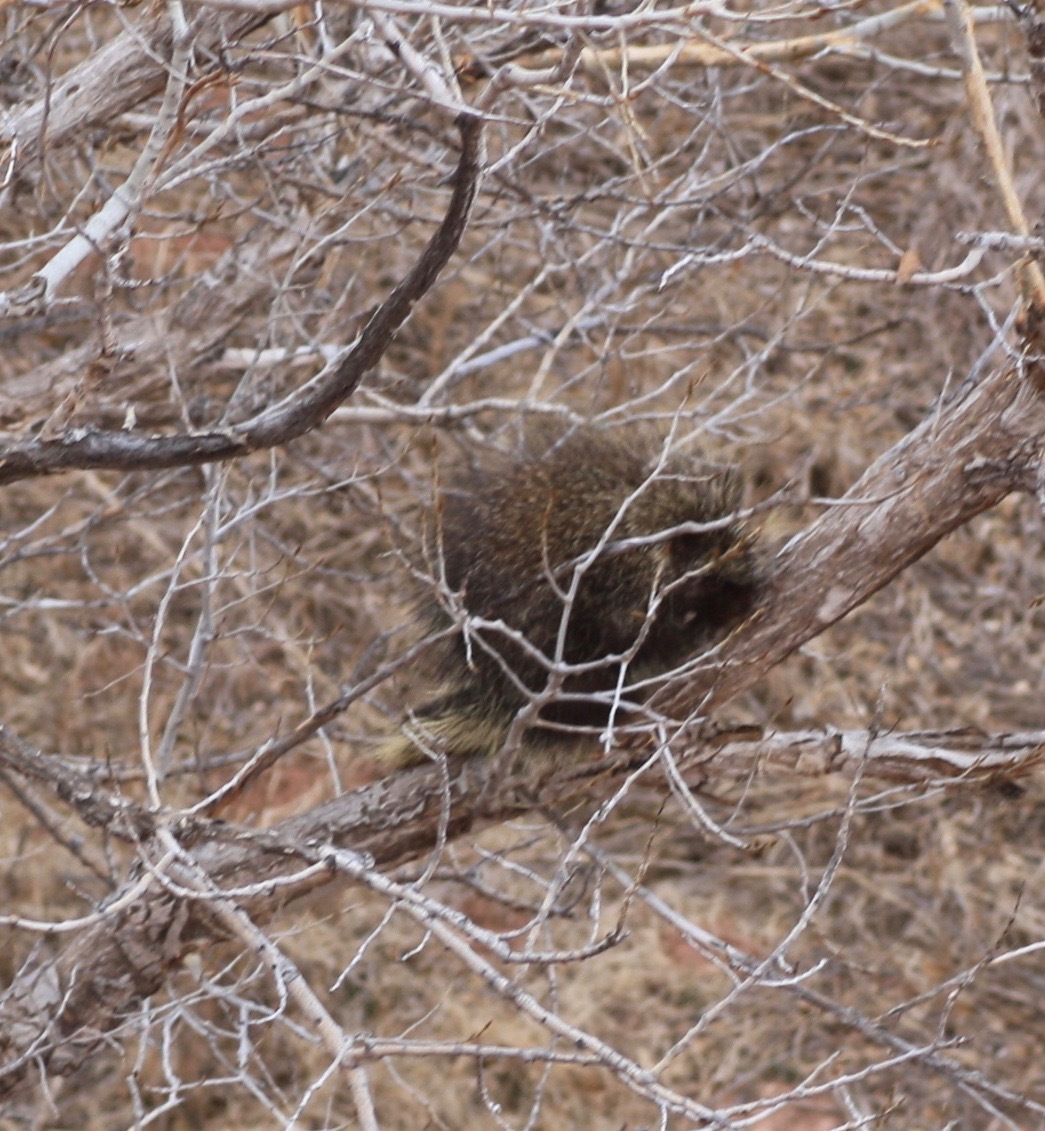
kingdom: Animalia
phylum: Chordata
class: Mammalia
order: Rodentia
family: Erethizontidae
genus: Erethizon
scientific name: Erethizon dorsatus
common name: North american porcupine
